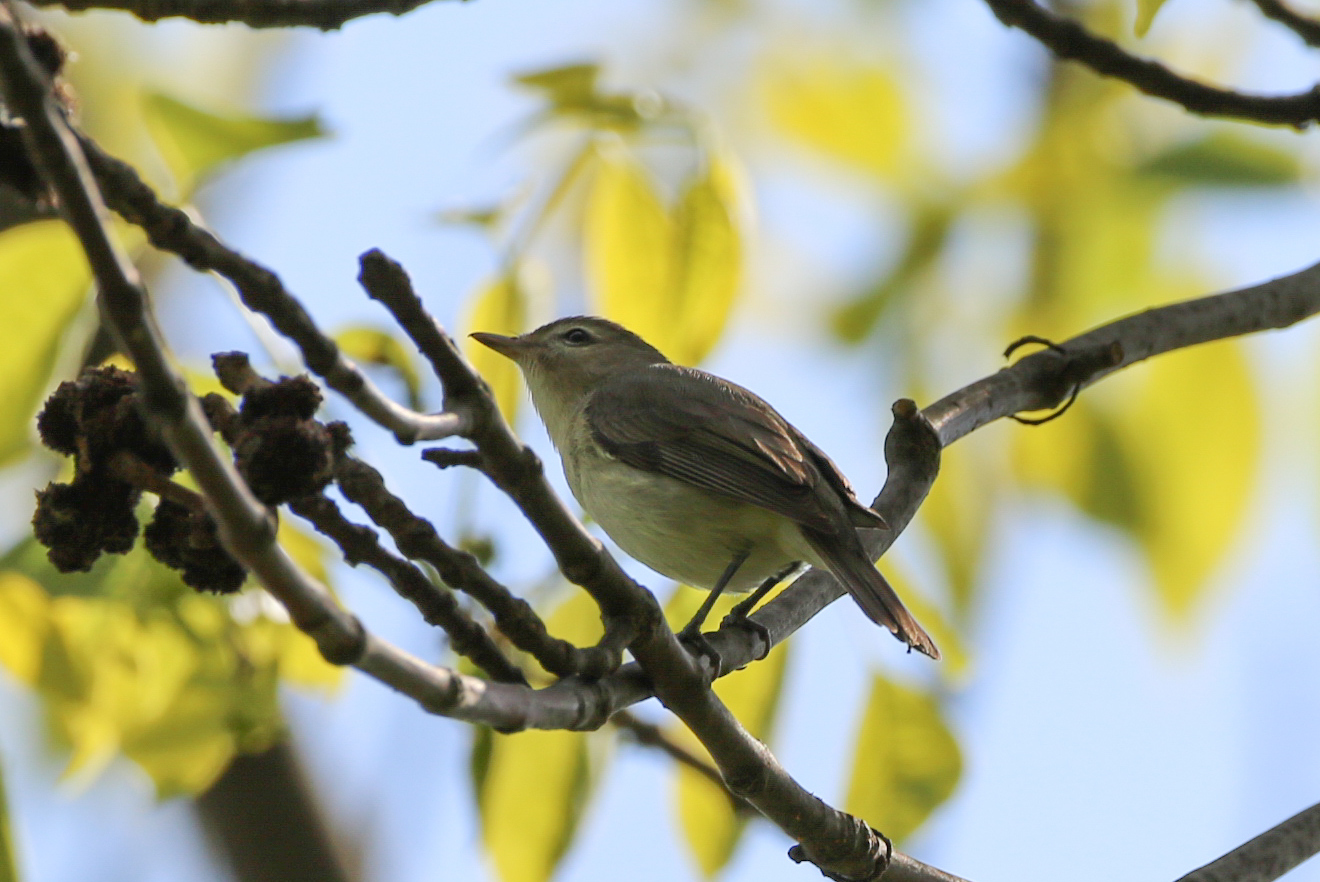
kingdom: Animalia
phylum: Chordata
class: Aves
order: Passeriformes
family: Vireonidae
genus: Vireo
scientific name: Vireo gilvus
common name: Warbling vireo
